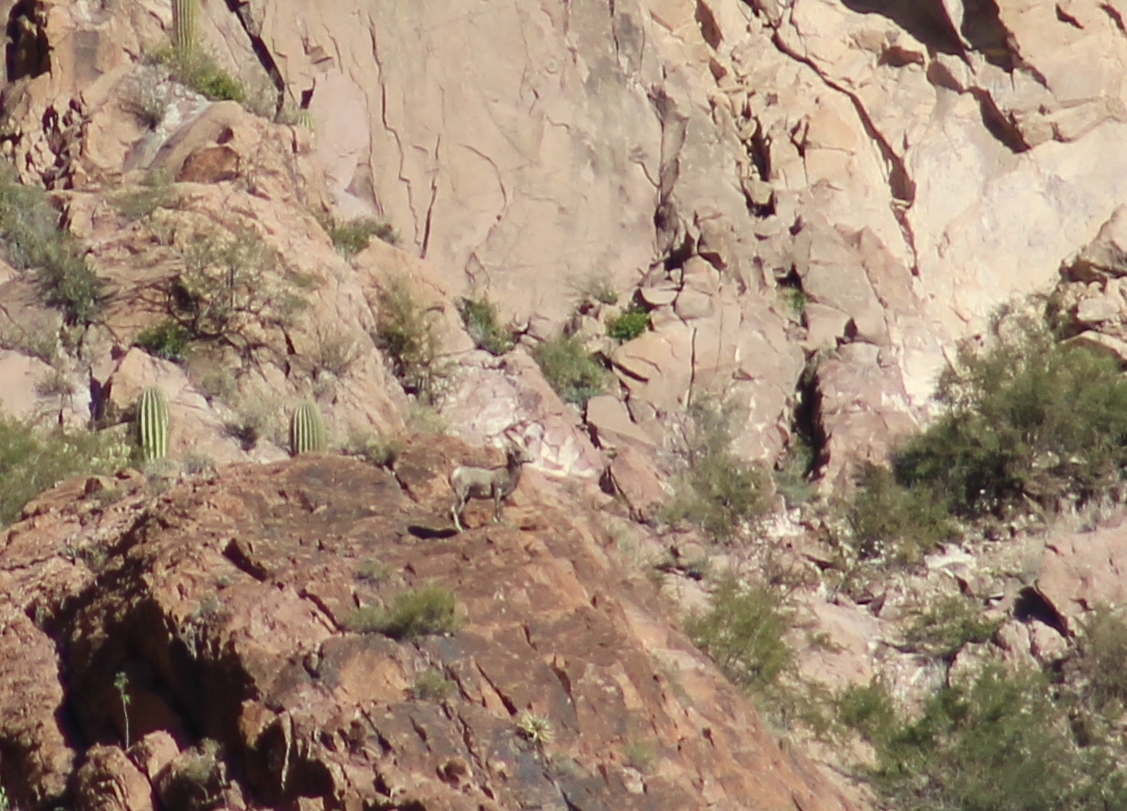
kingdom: Animalia
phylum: Chordata
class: Mammalia
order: Artiodactyla
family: Bovidae
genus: Ovis
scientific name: Ovis canadensis
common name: Bighorn sheep
